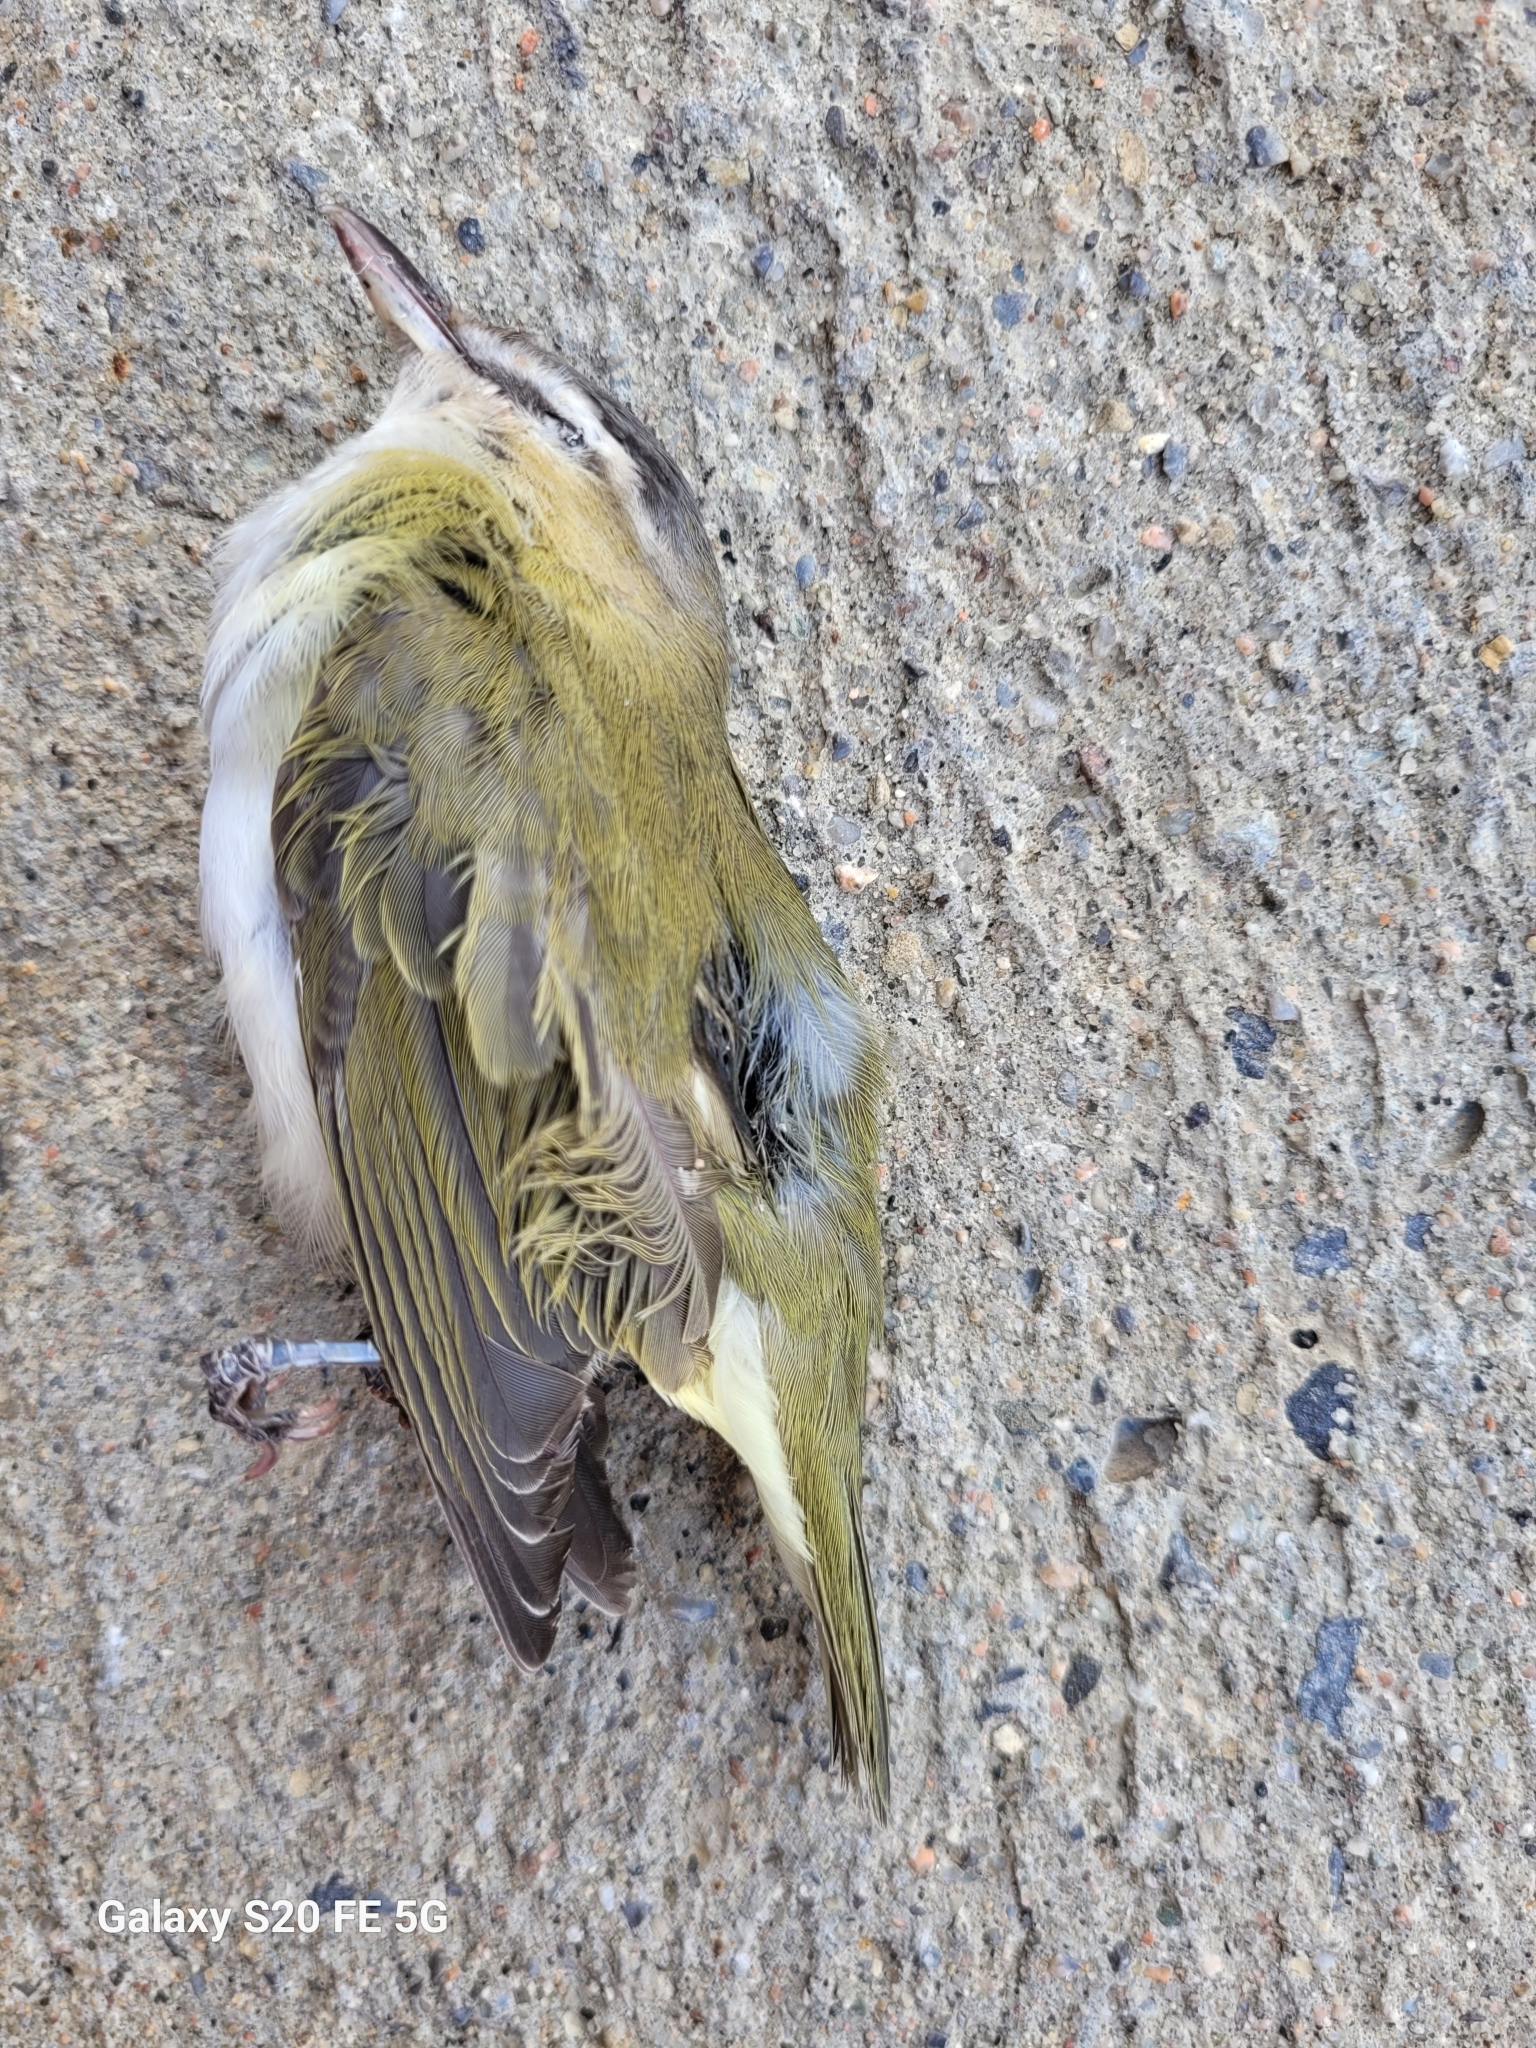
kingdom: Animalia
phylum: Chordata
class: Aves
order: Passeriformes
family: Vireonidae
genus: Vireo
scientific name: Vireo olivaceus
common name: Red-eyed vireo
